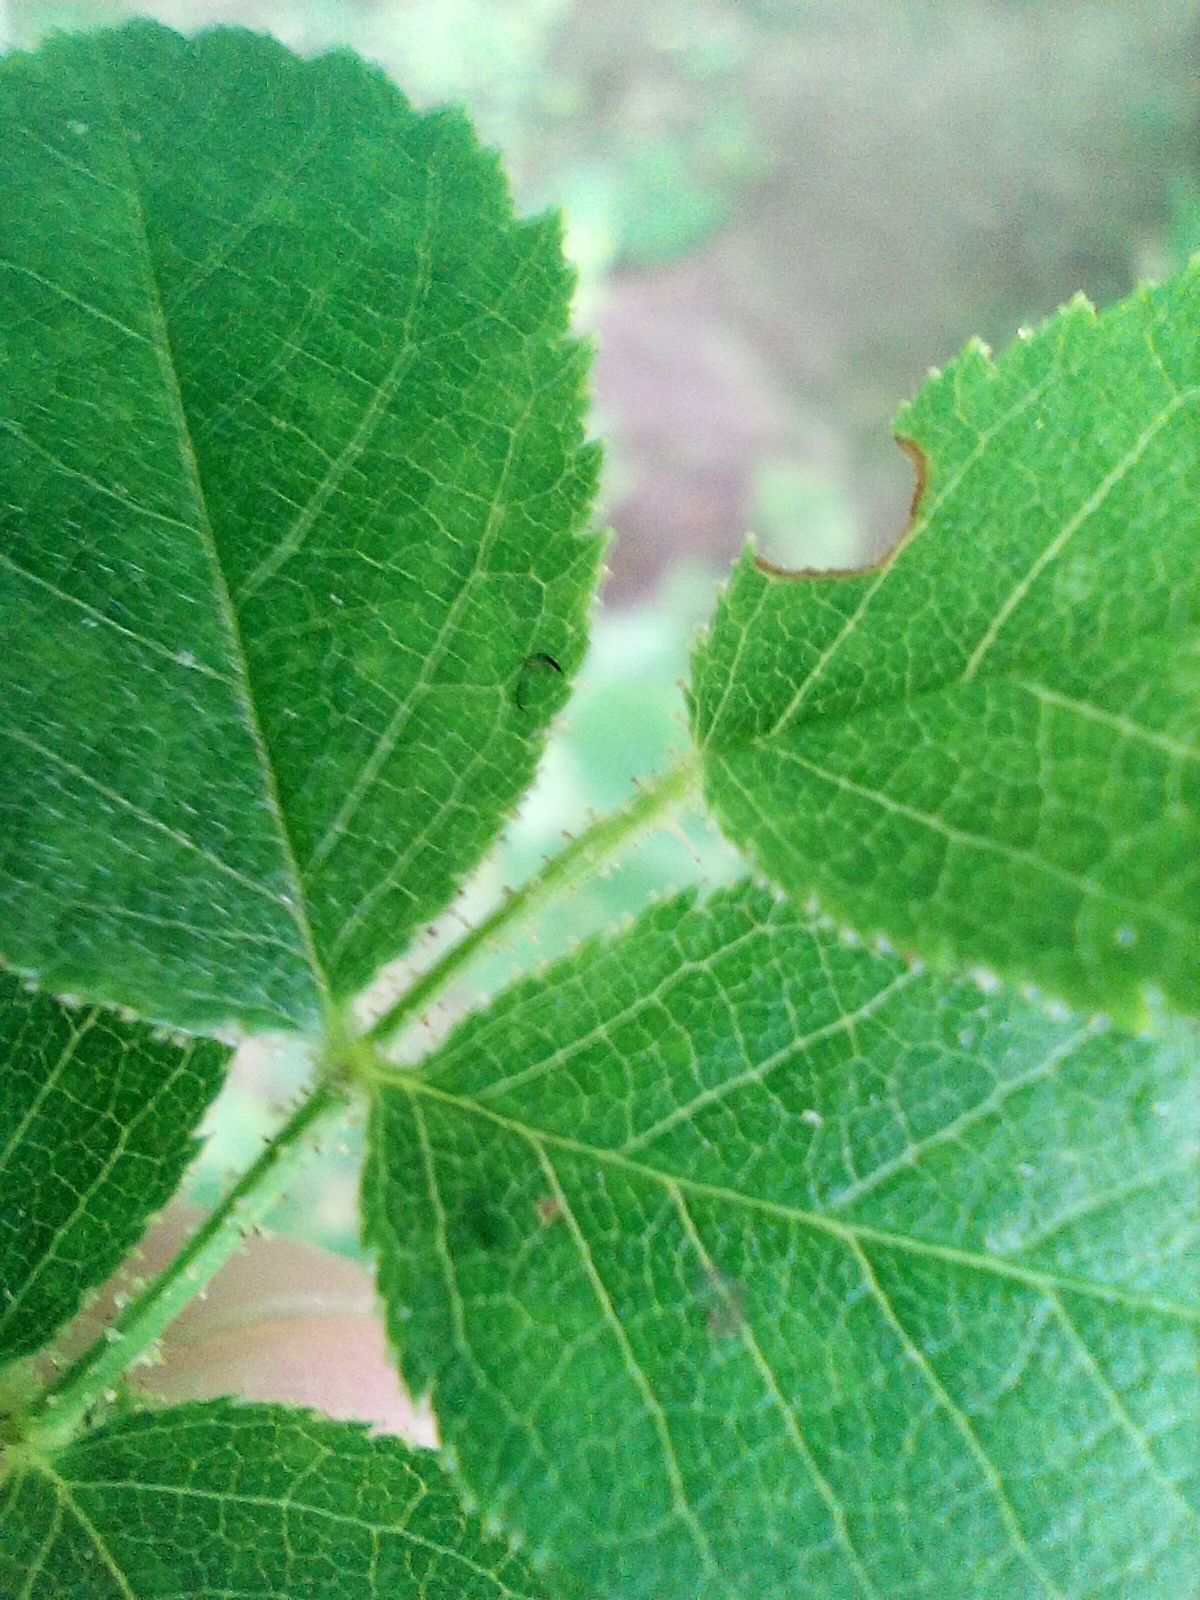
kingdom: Plantae
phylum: Tracheophyta
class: Magnoliopsida
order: Rosales
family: Rosaceae
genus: Rosa
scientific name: Rosa rubiginosa
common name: Sweet-briar
